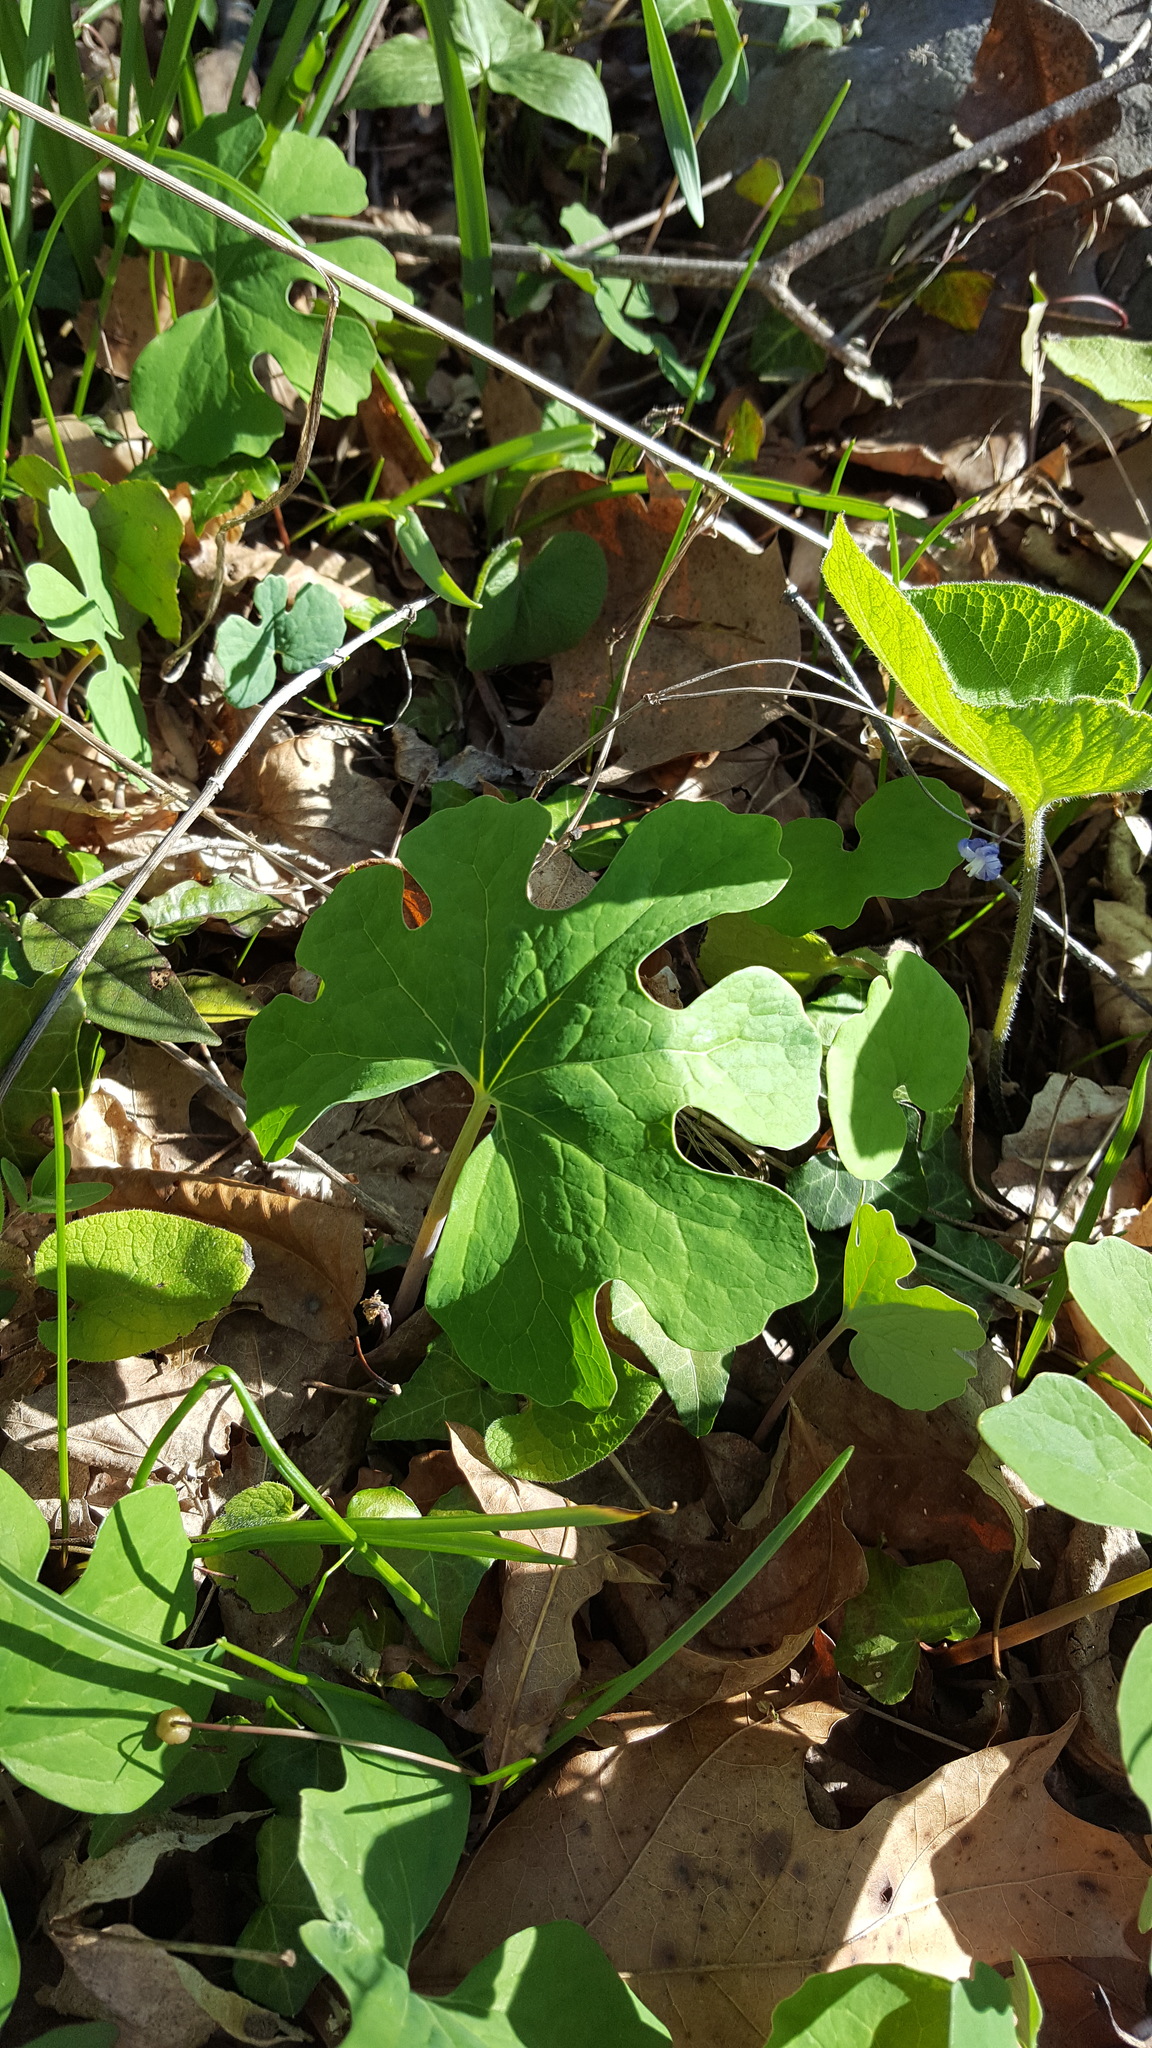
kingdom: Plantae
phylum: Tracheophyta
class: Magnoliopsida
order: Ranunculales
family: Papaveraceae
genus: Sanguinaria
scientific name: Sanguinaria canadensis
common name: Bloodroot
